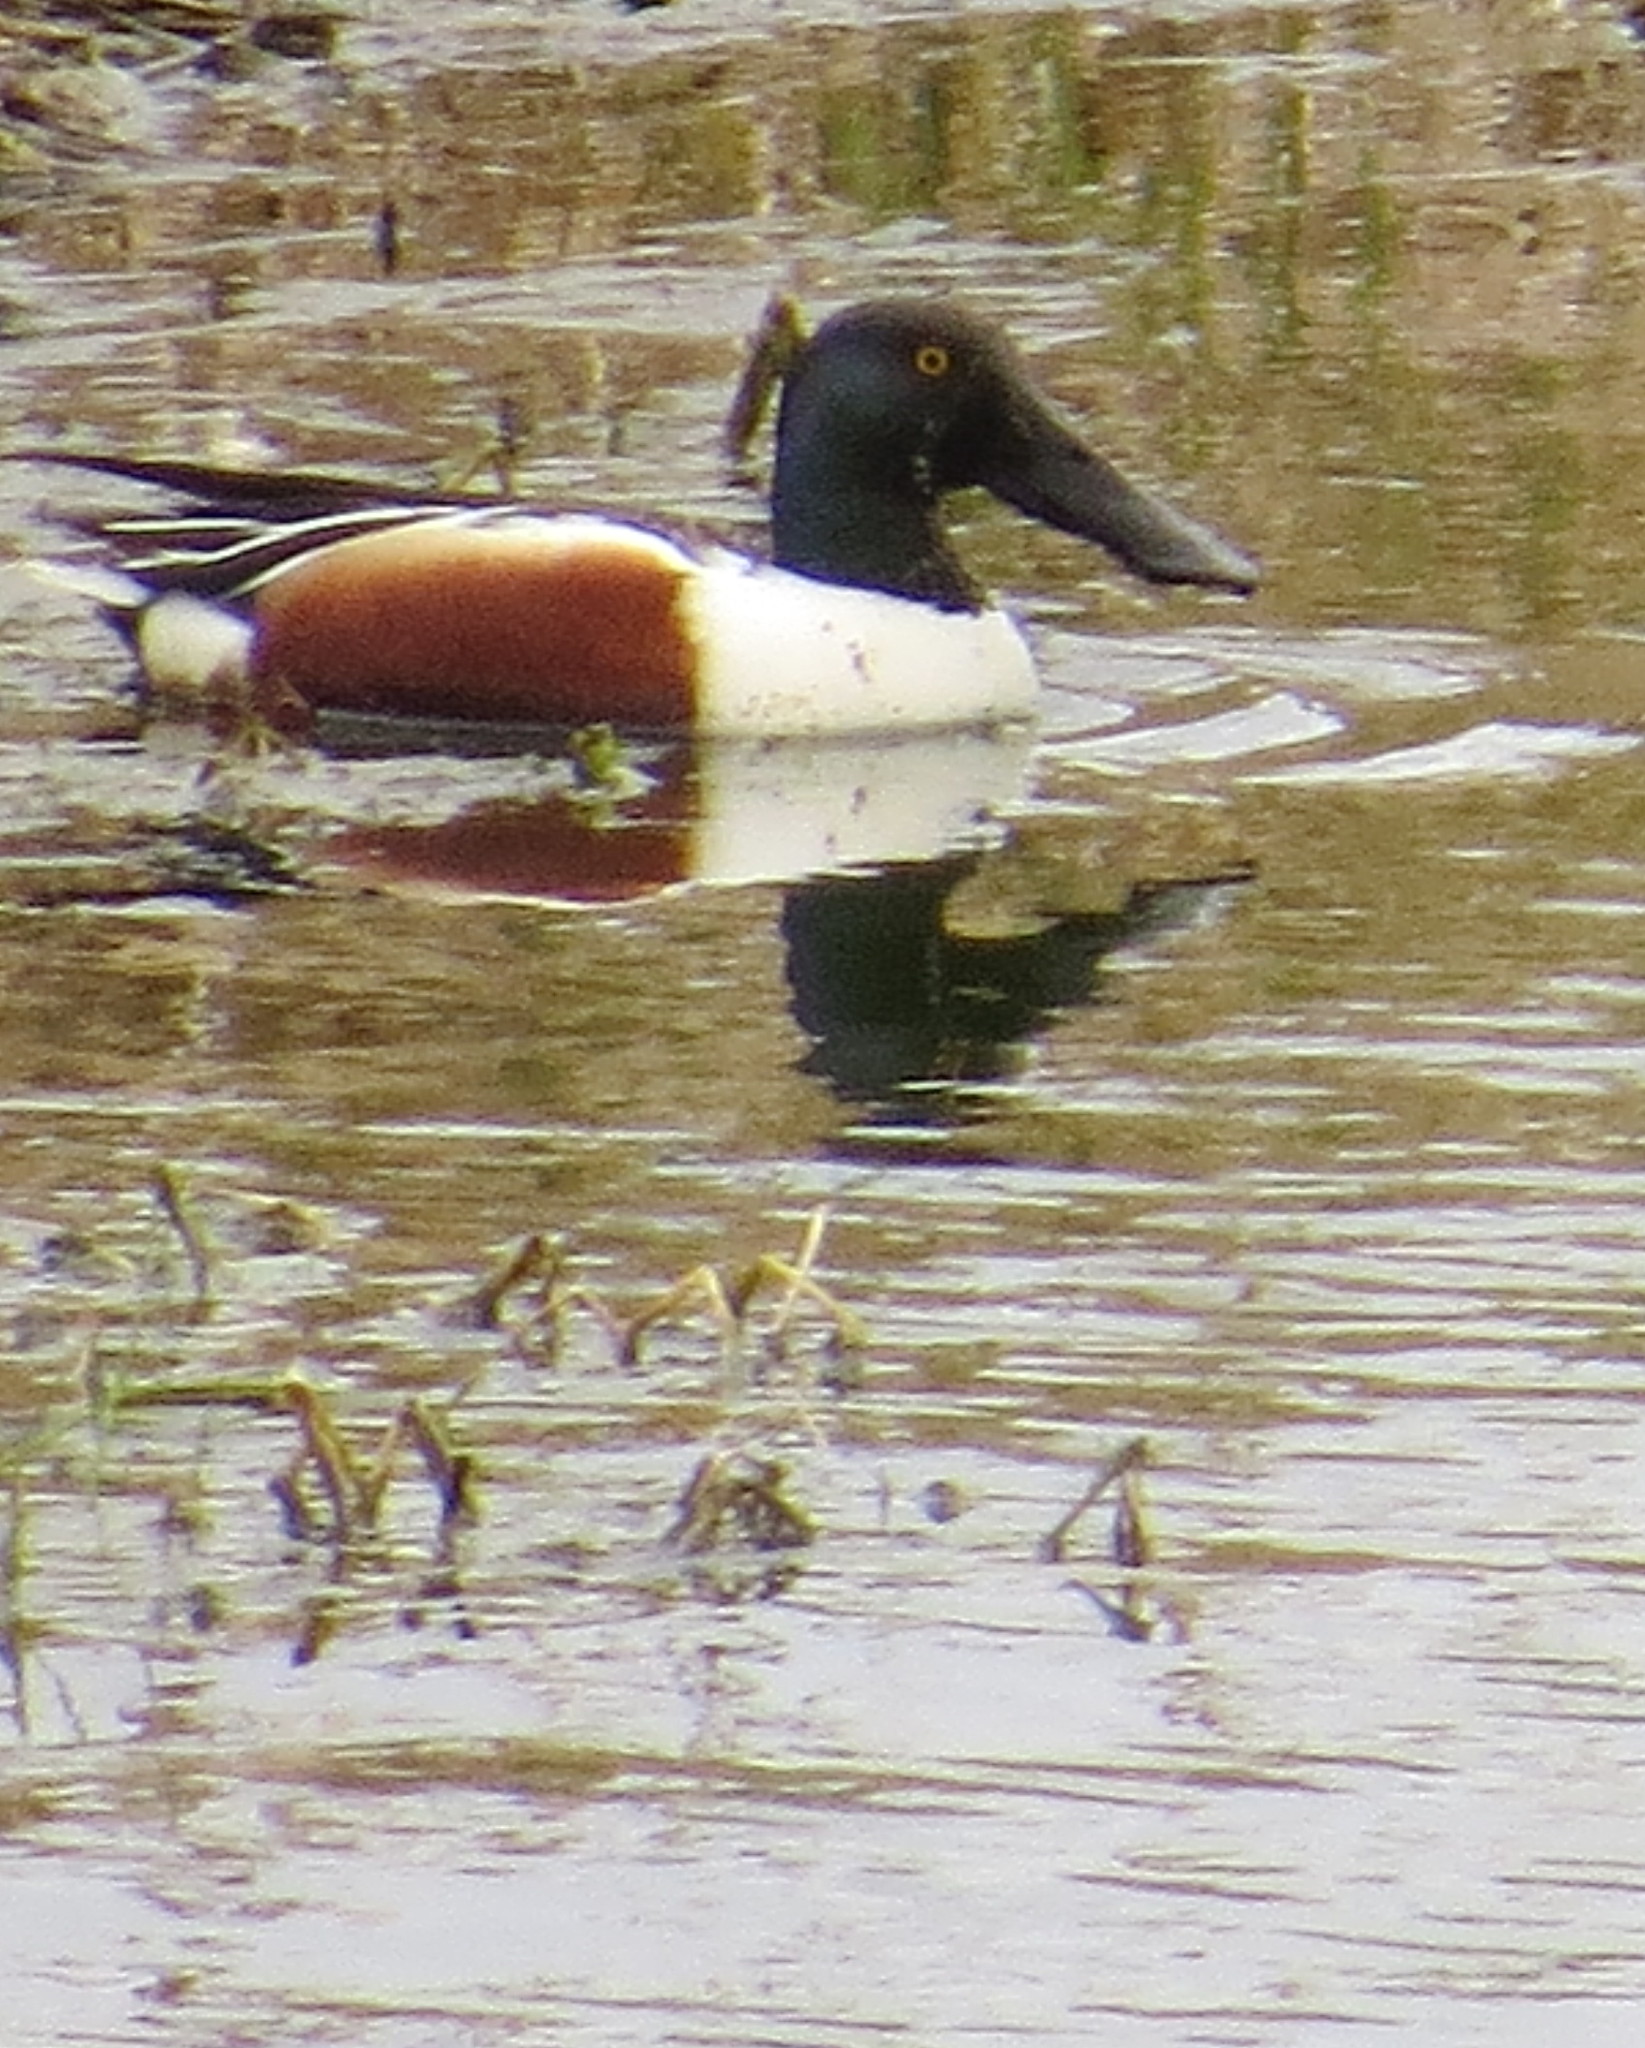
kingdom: Animalia
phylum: Chordata
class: Aves
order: Anseriformes
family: Anatidae
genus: Spatula
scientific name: Spatula clypeata
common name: Northern shoveler
